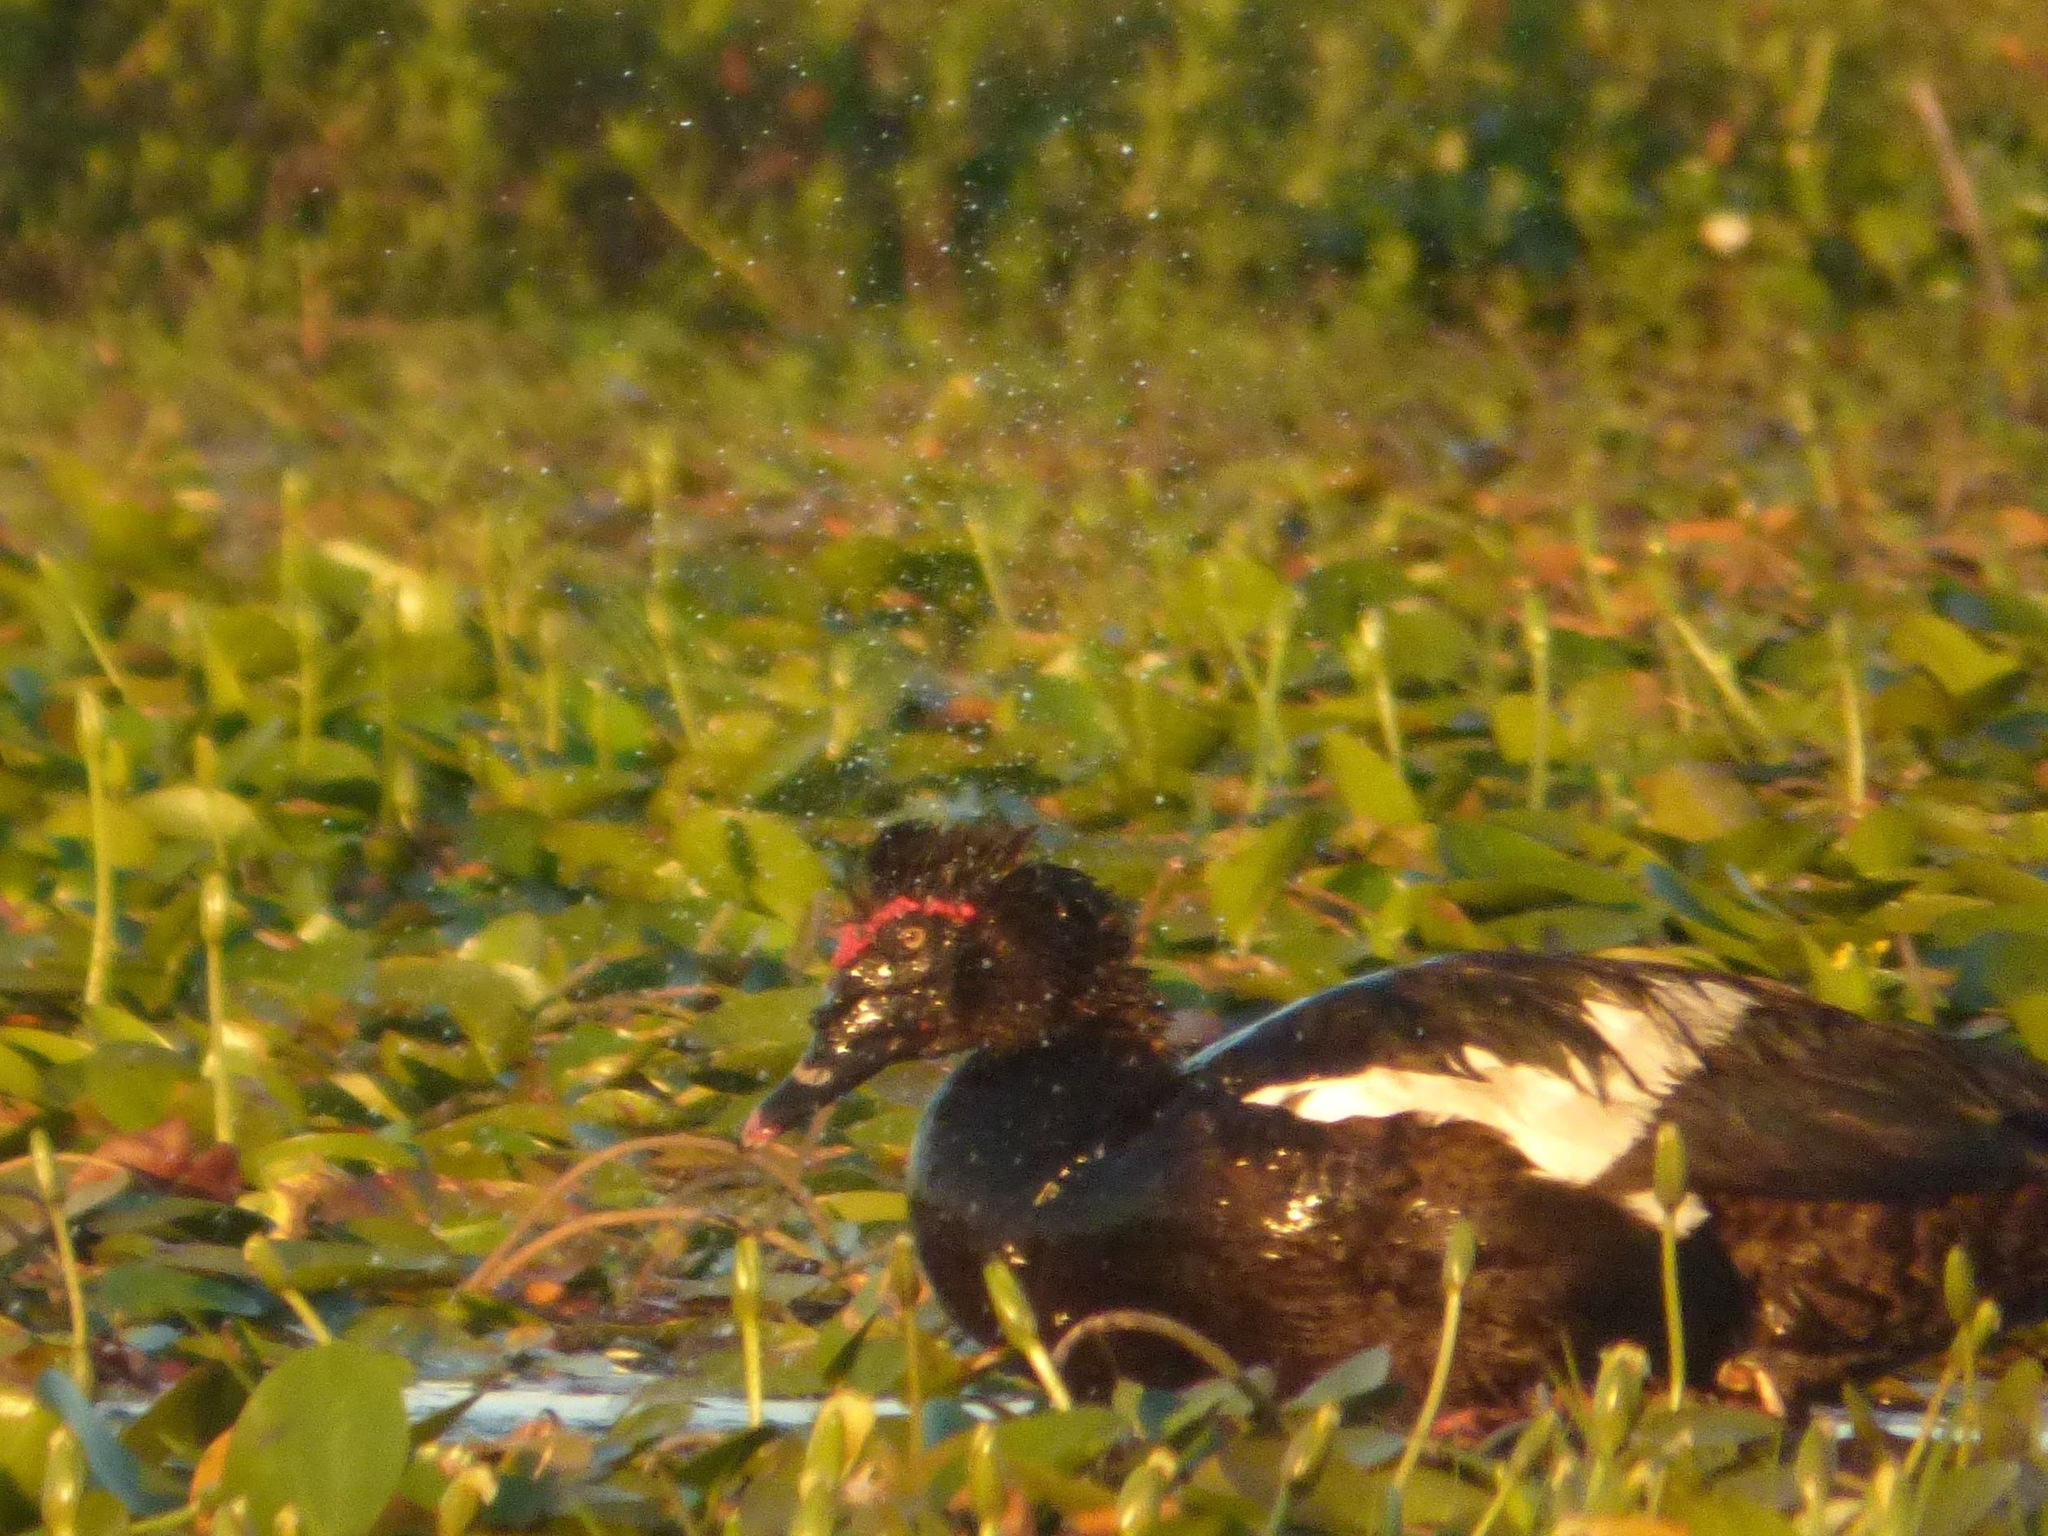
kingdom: Animalia
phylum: Chordata
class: Aves
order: Anseriformes
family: Anatidae
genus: Cairina
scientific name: Cairina moschata
